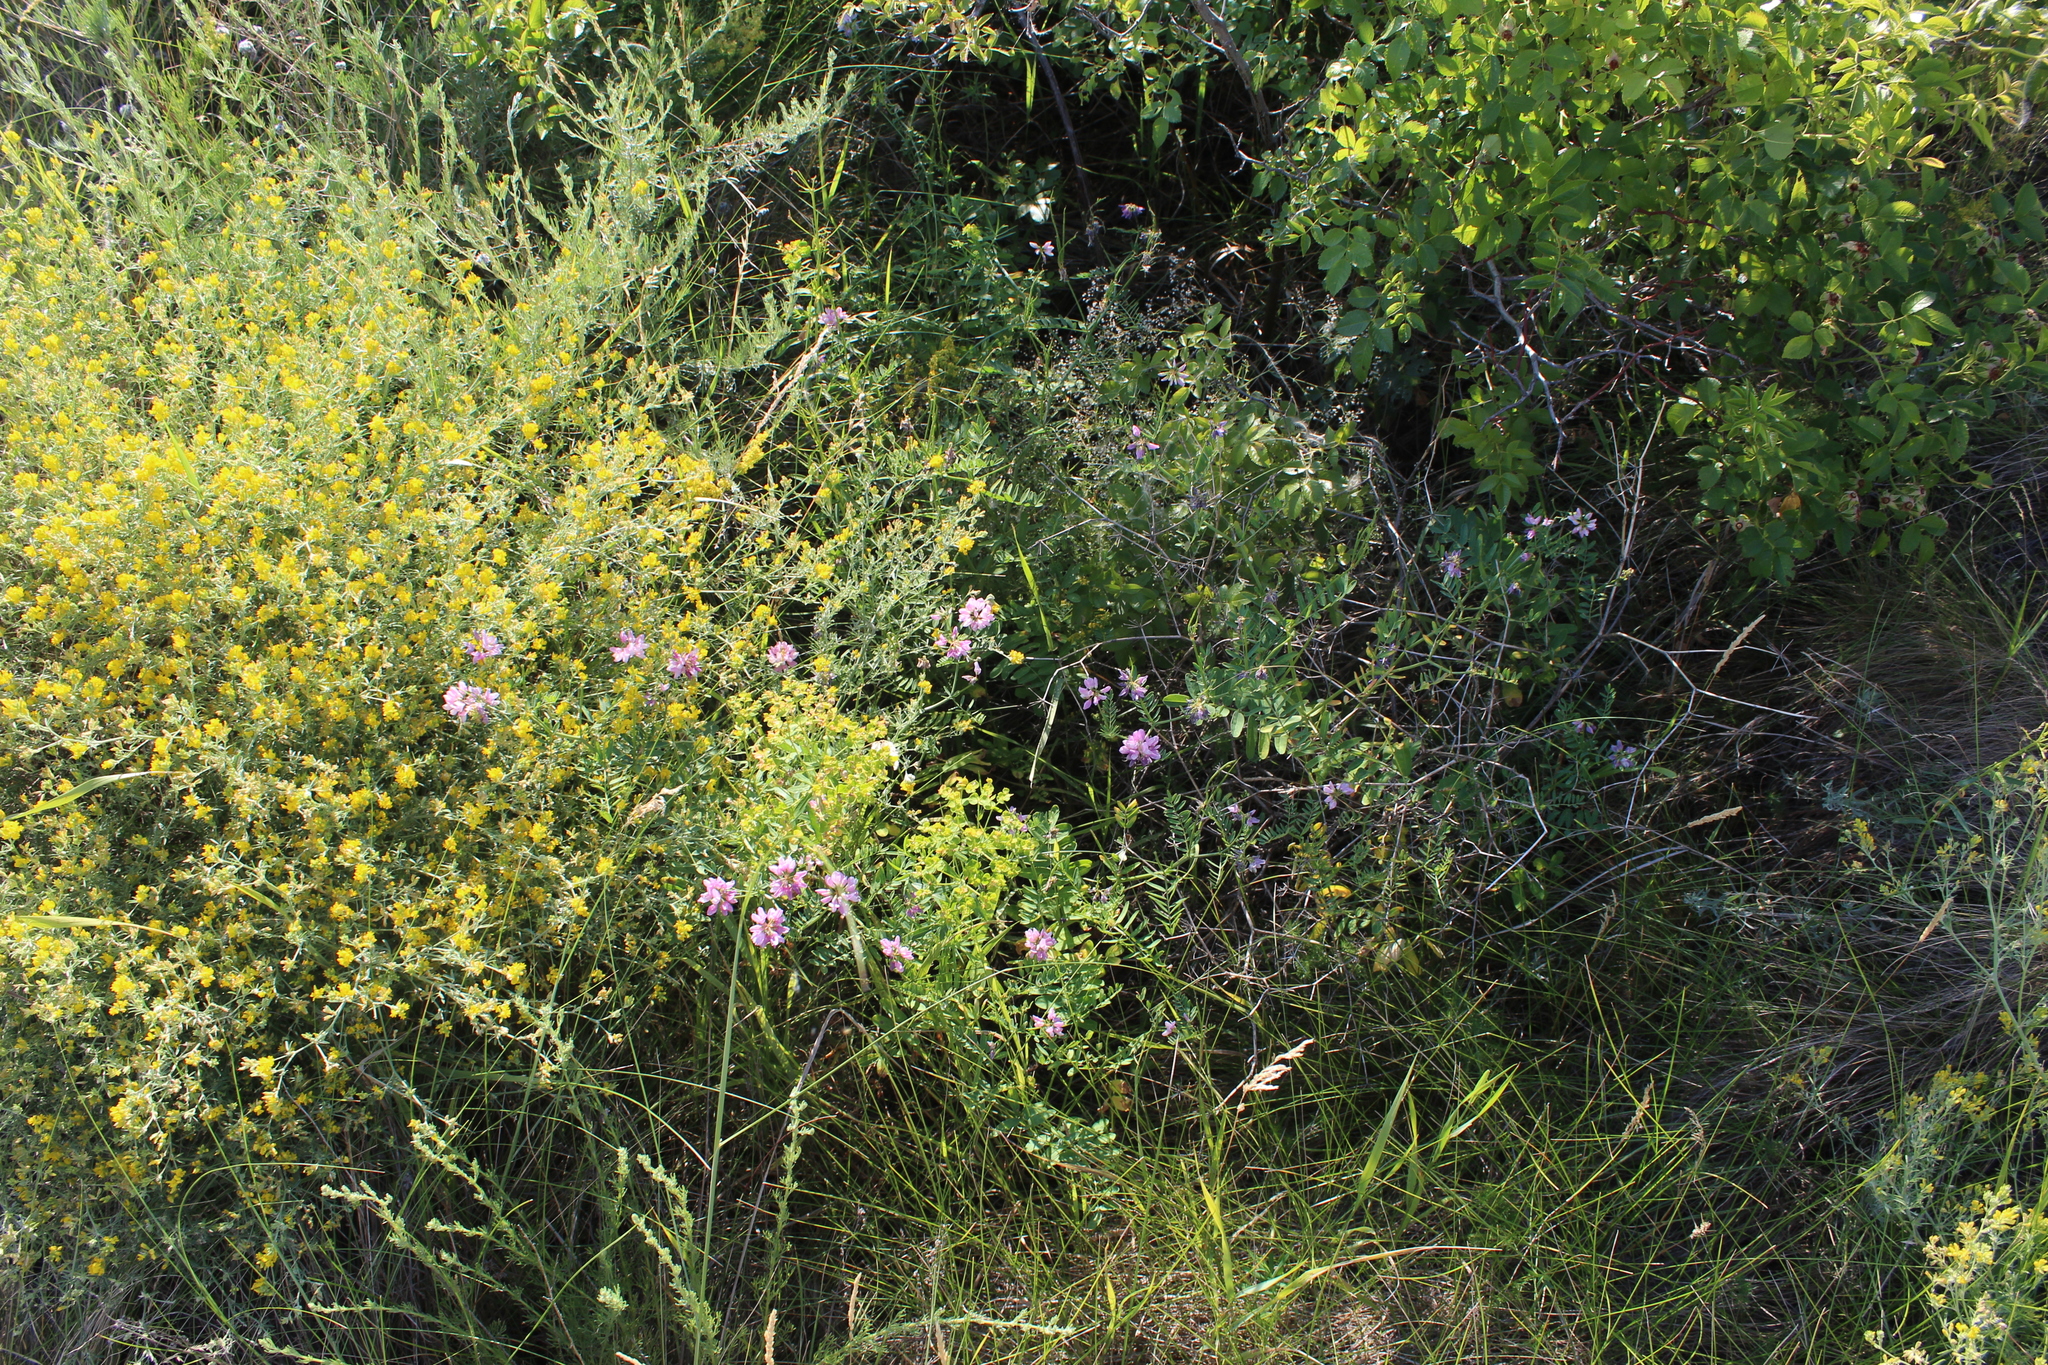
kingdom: Plantae
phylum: Tracheophyta
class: Magnoliopsida
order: Fabales
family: Fabaceae
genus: Coronilla
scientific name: Coronilla varia
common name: Crownvetch
